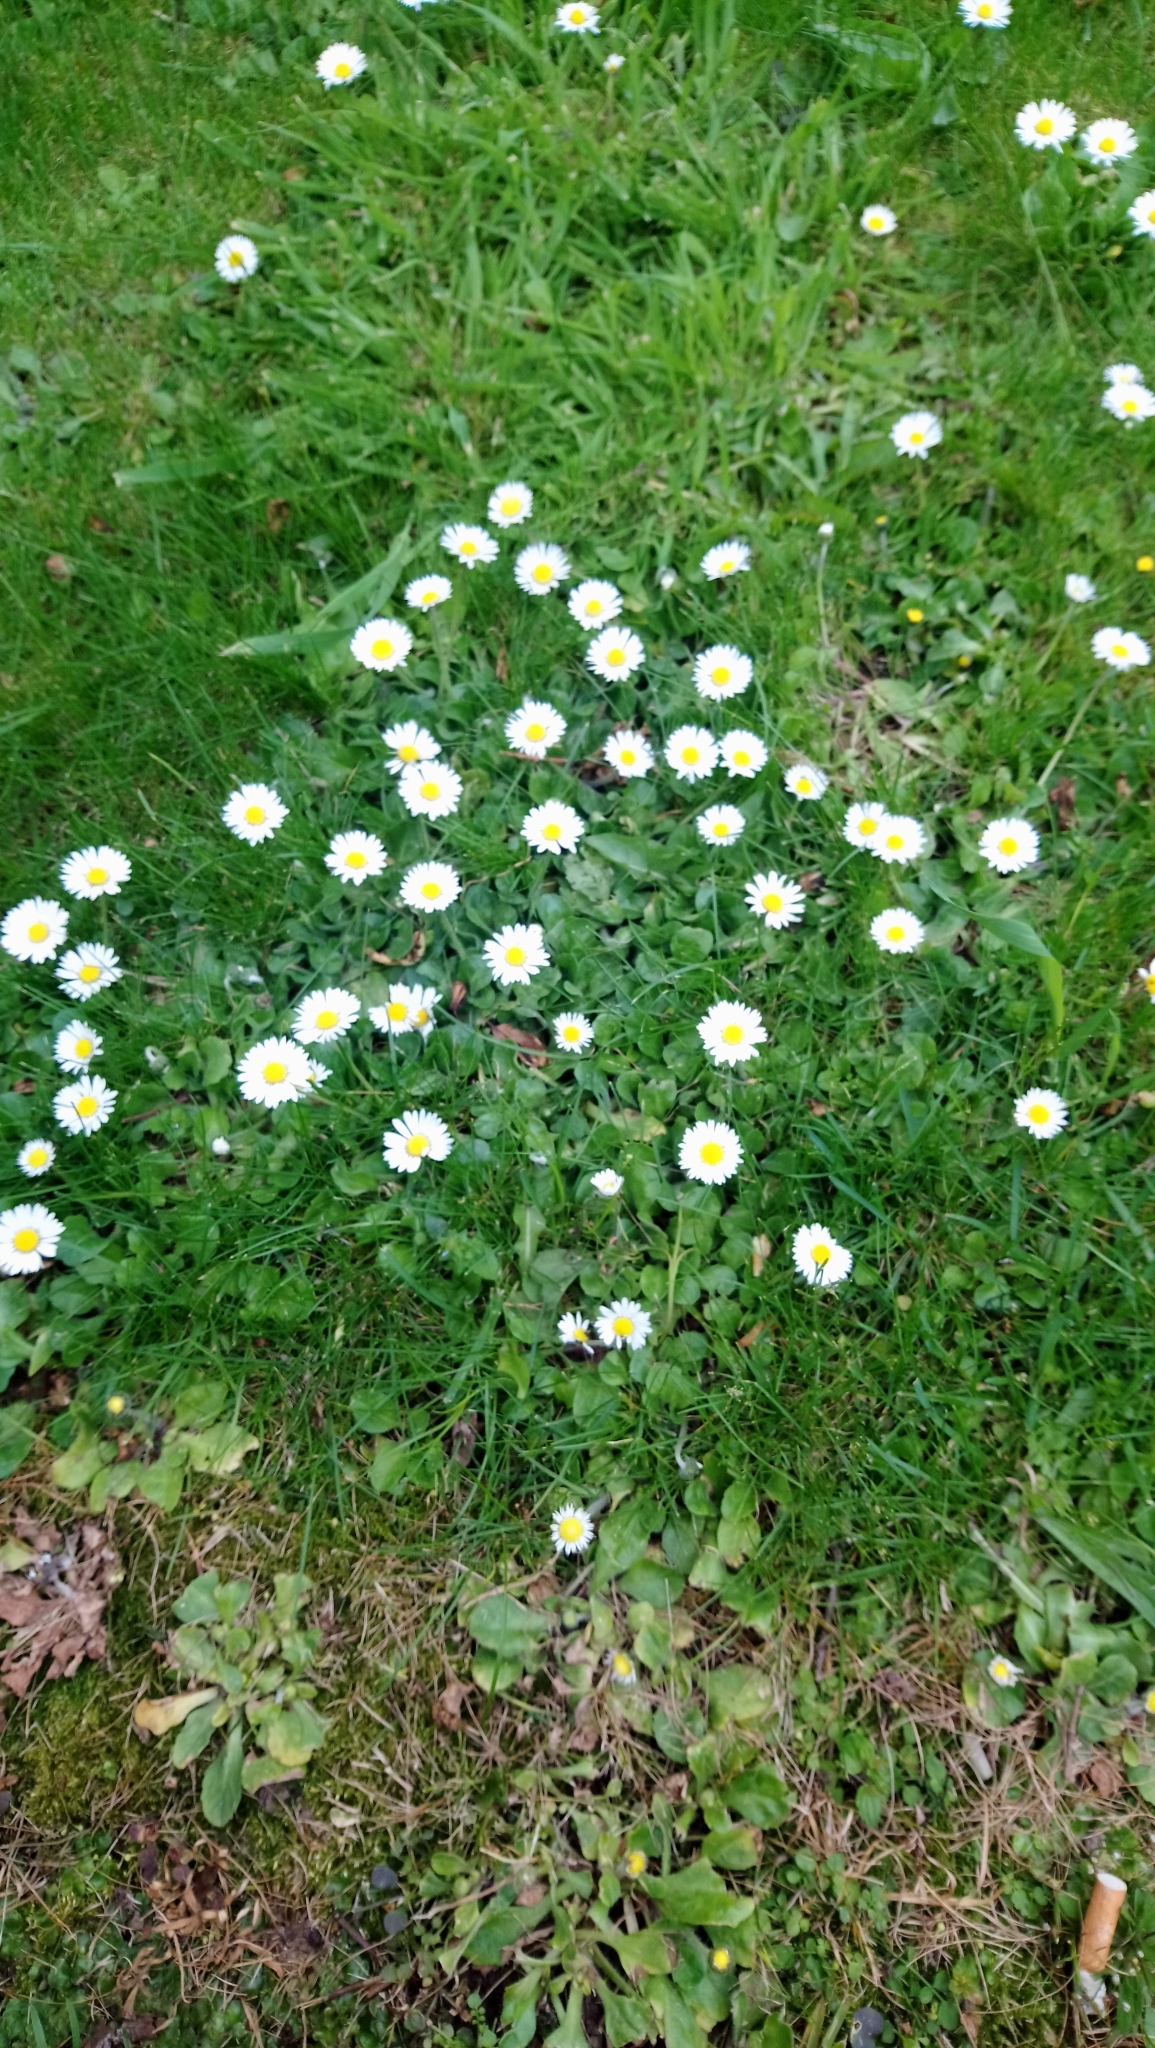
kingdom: Plantae
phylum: Tracheophyta
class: Magnoliopsida
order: Asterales
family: Asteraceae
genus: Bellis
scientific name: Bellis perennis
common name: Lawndaisy
